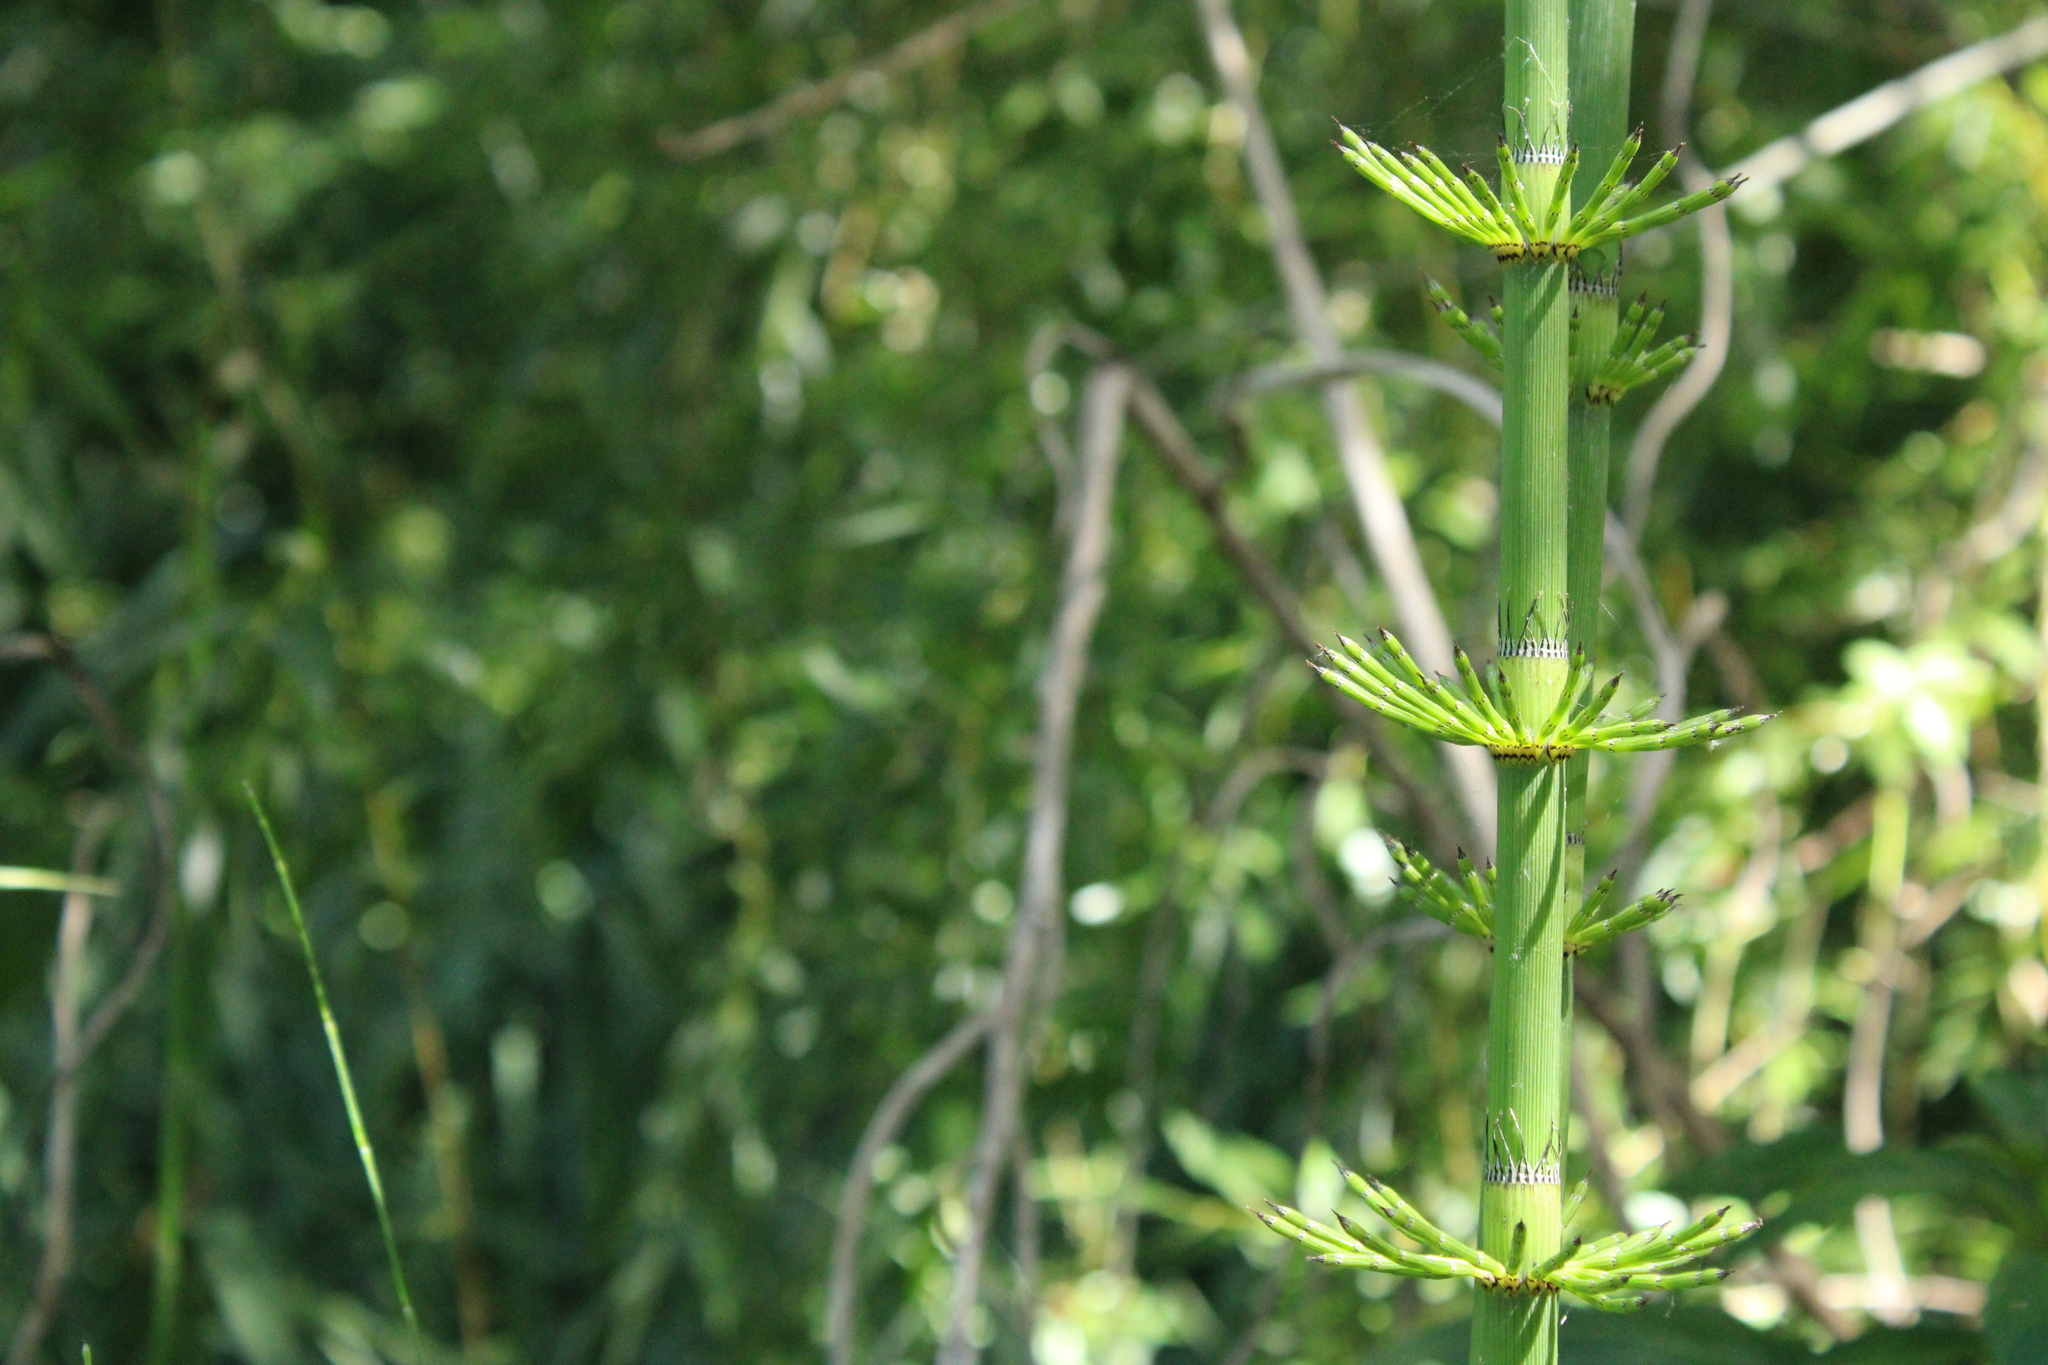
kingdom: Plantae
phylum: Tracheophyta
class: Polypodiopsida
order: Equisetales
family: Equisetaceae
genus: Equisetum
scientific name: Equisetum giganteum
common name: Giant horsetail
